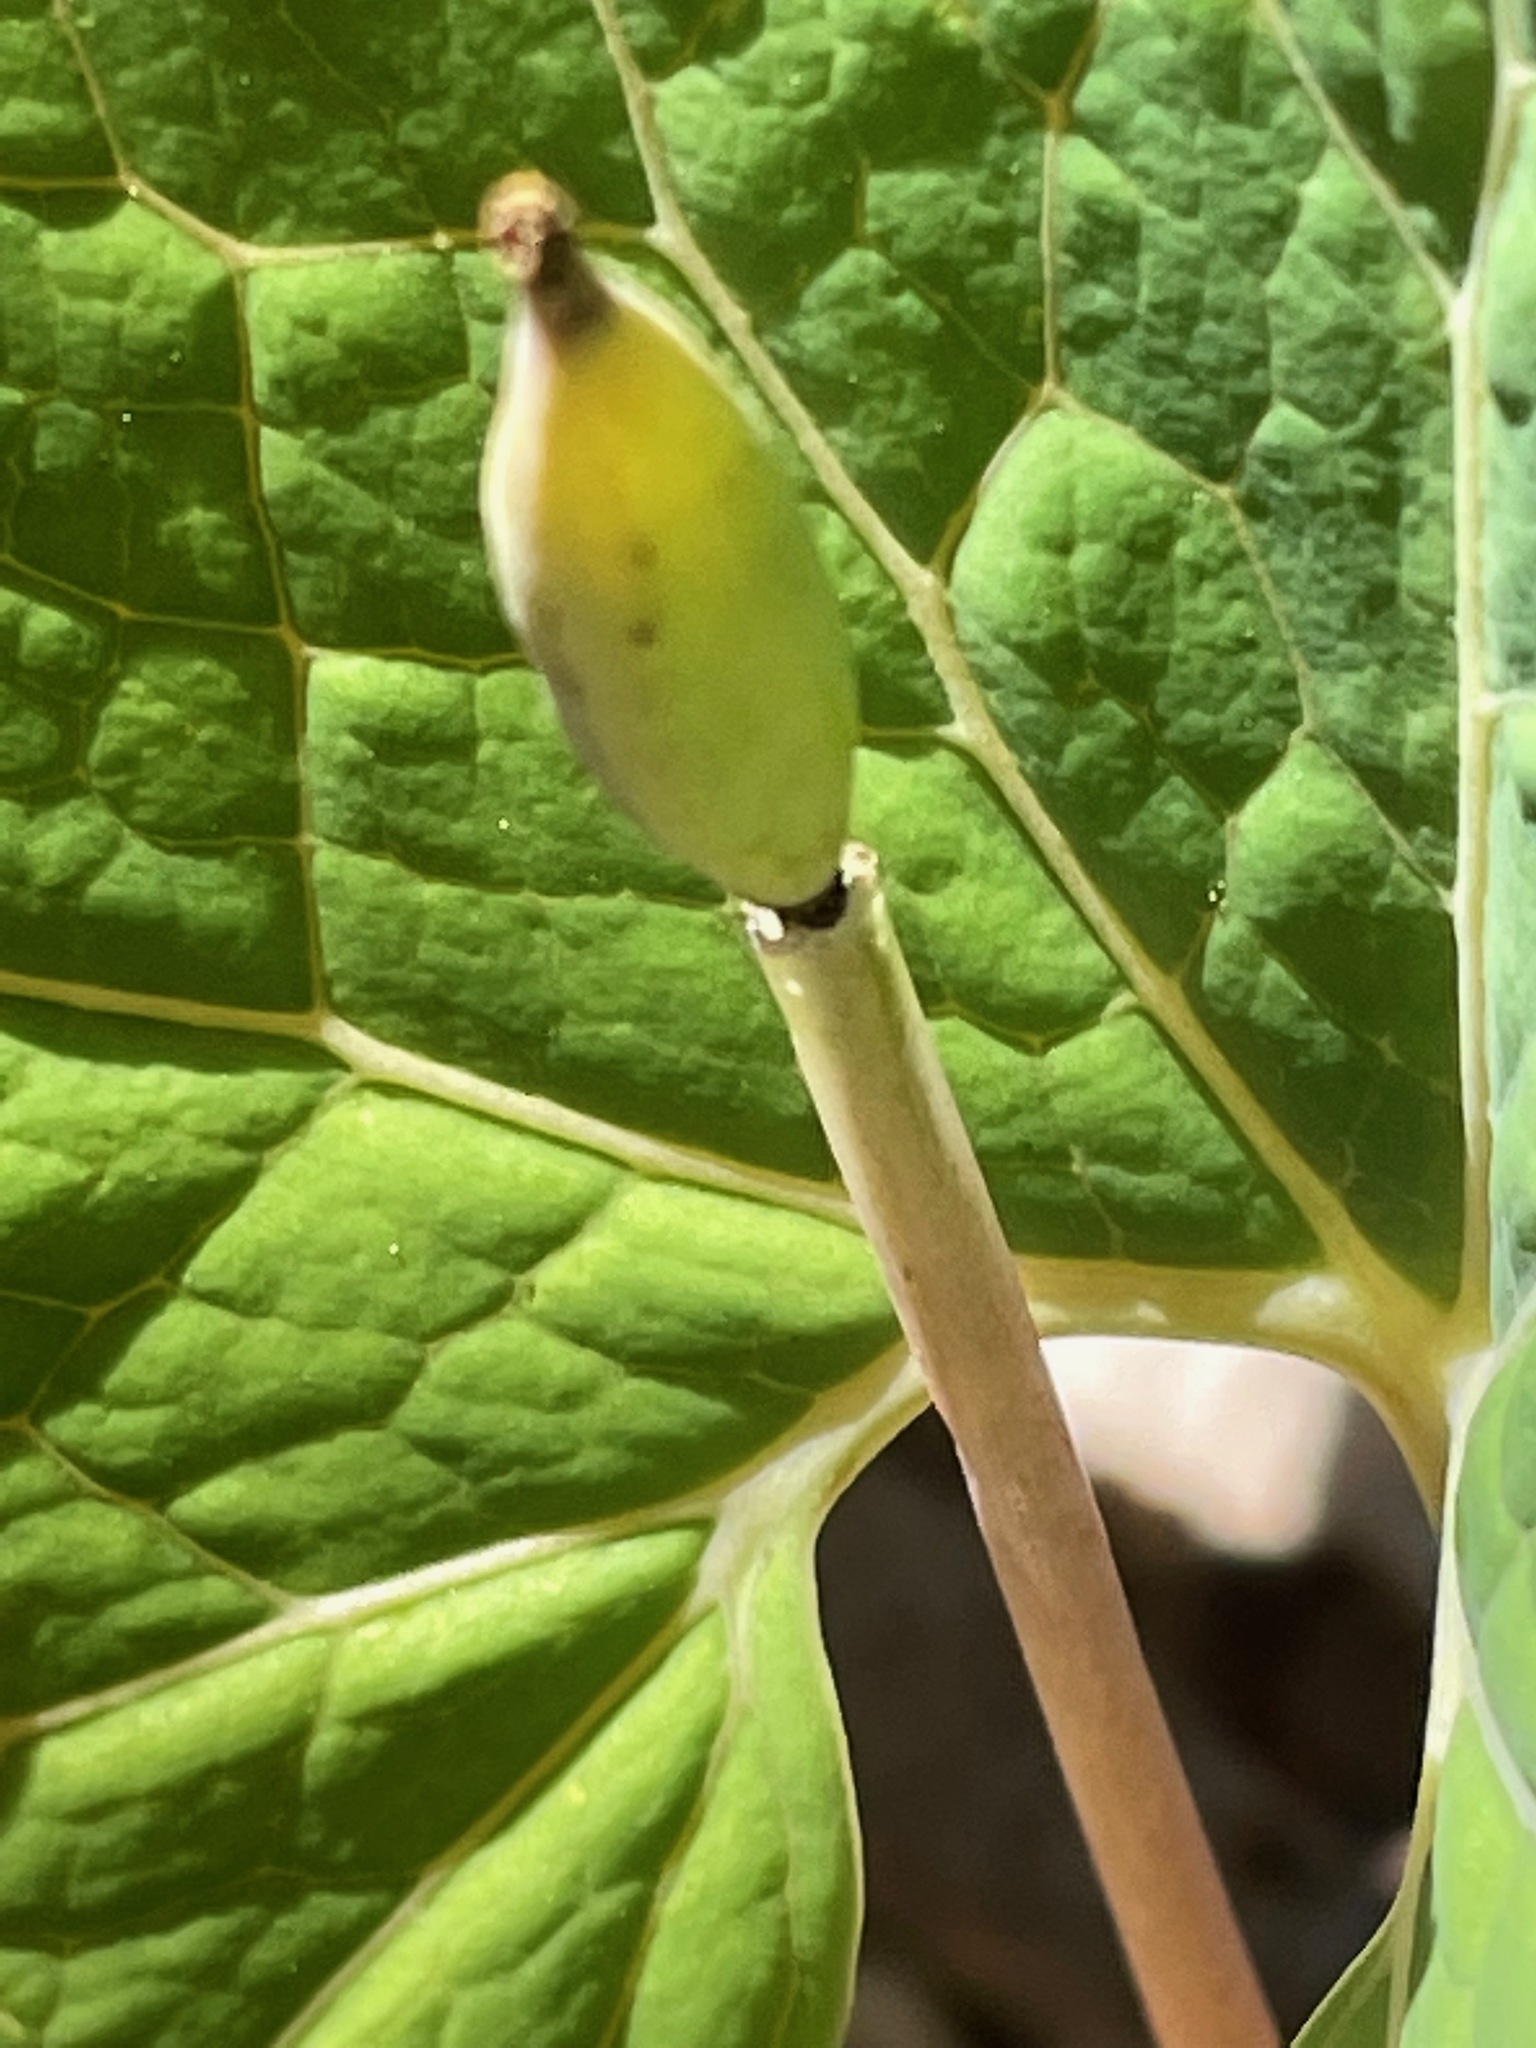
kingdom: Plantae
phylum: Tracheophyta
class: Magnoliopsida
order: Ranunculales
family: Papaveraceae
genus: Sanguinaria
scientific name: Sanguinaria canadensis
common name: Bloodroot
